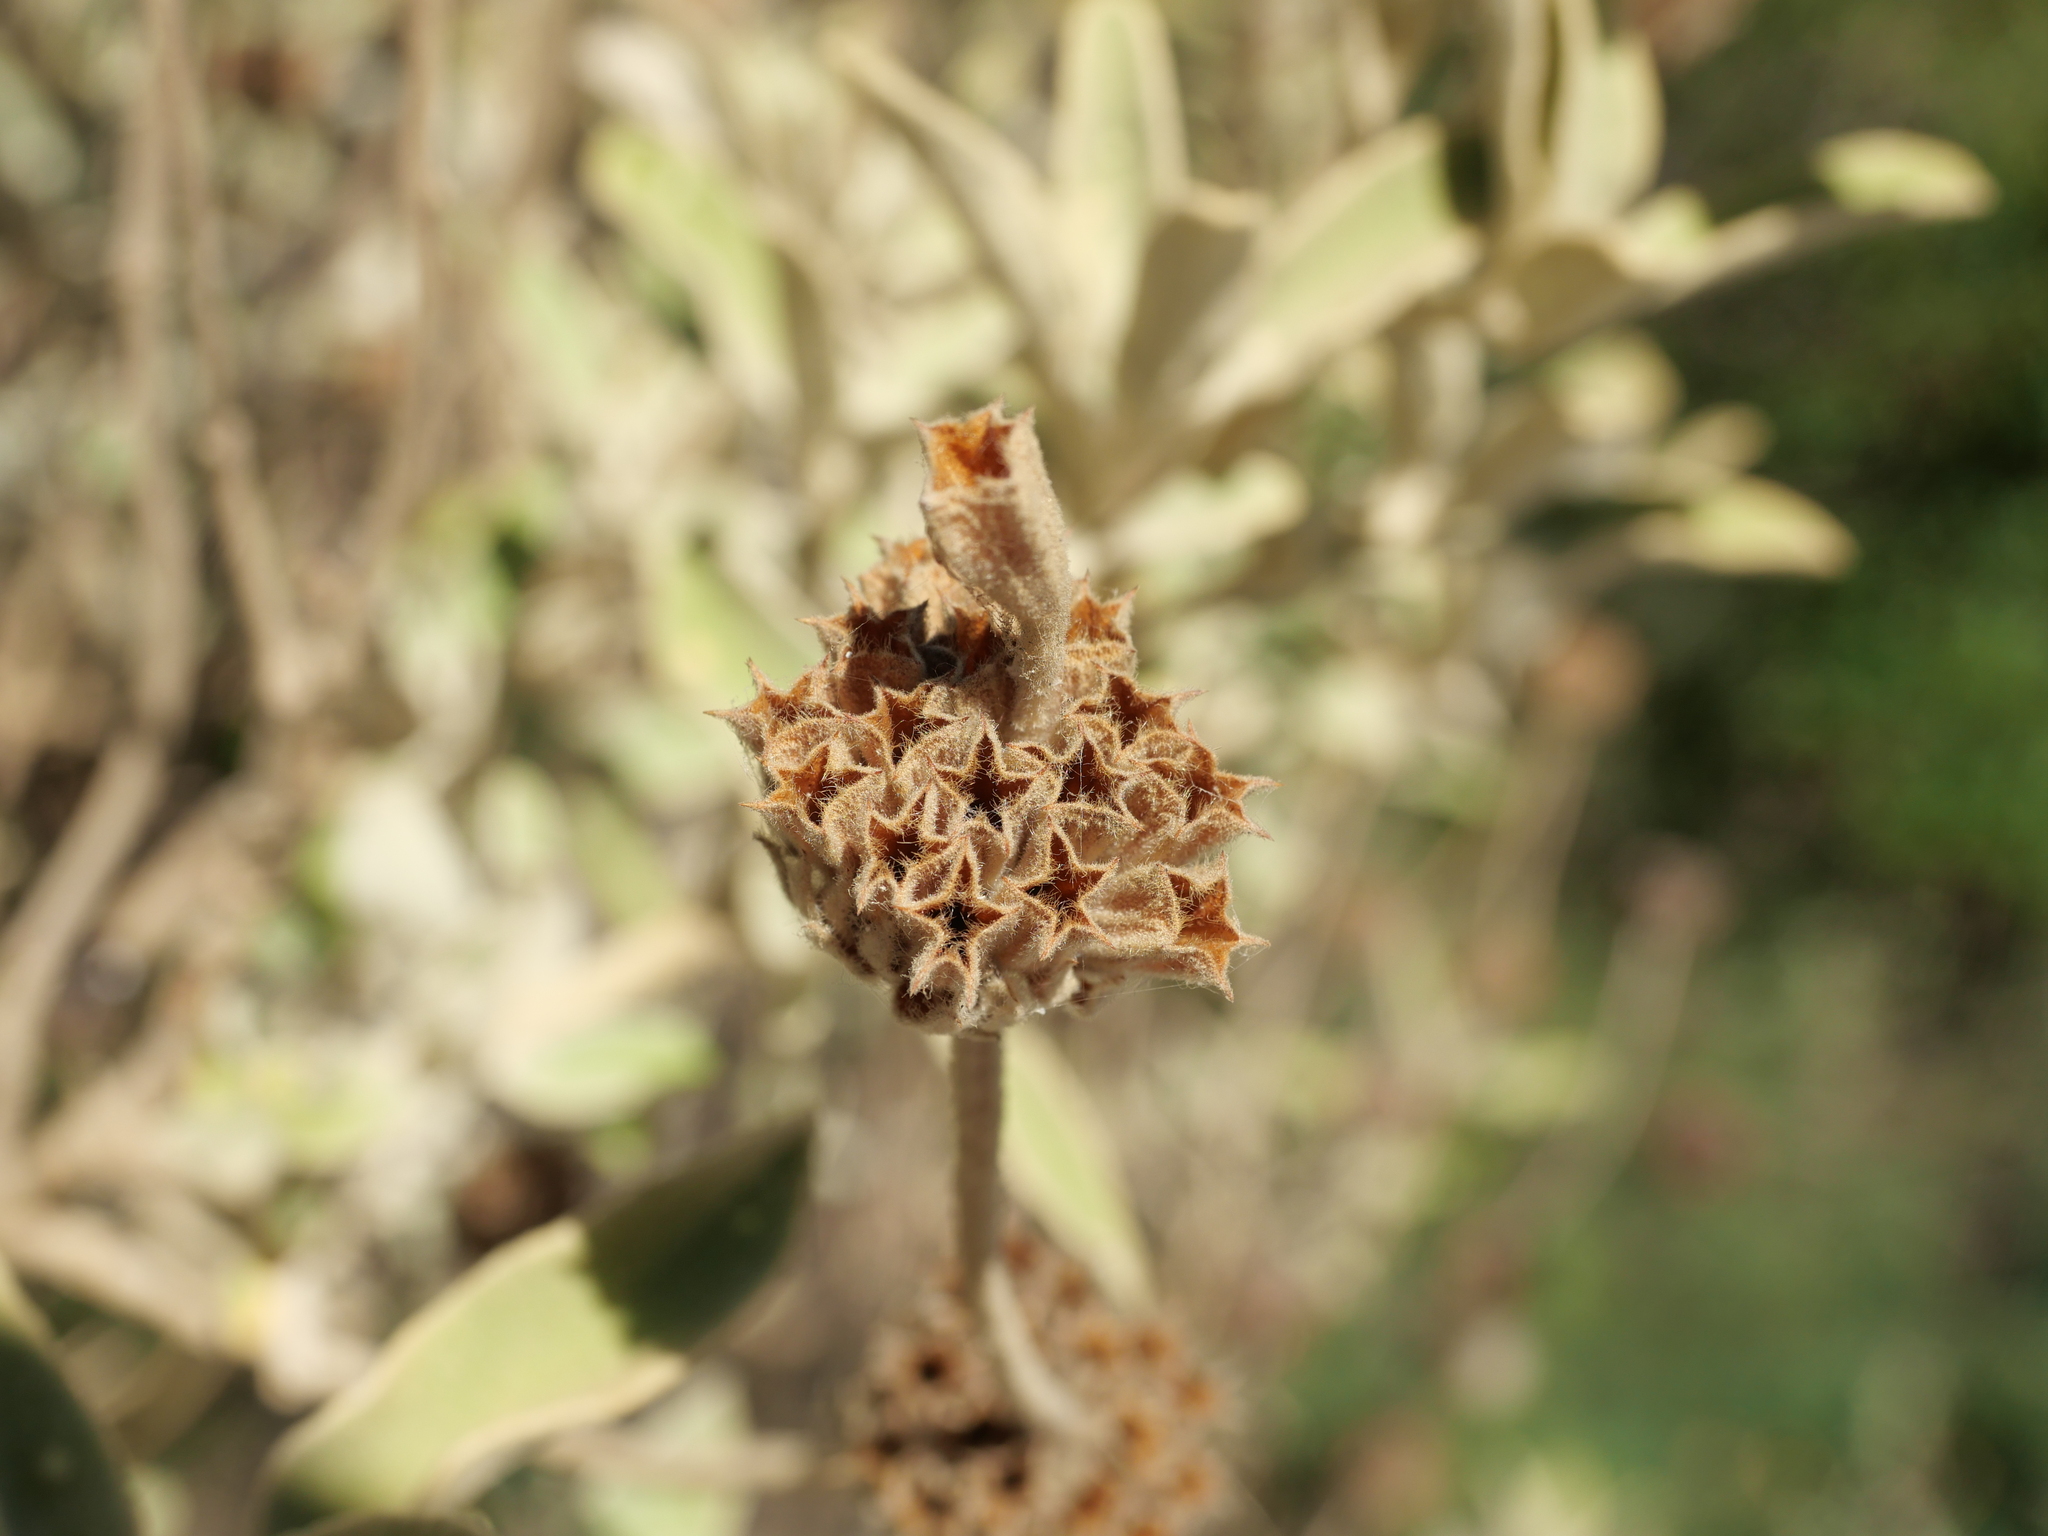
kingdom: Plantae
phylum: Tracheophyta
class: Magnoliopsida
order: Lamiales
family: Lamiaceae
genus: Phlomis
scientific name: Phlomis fruticosa
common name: Jerusalem sage
